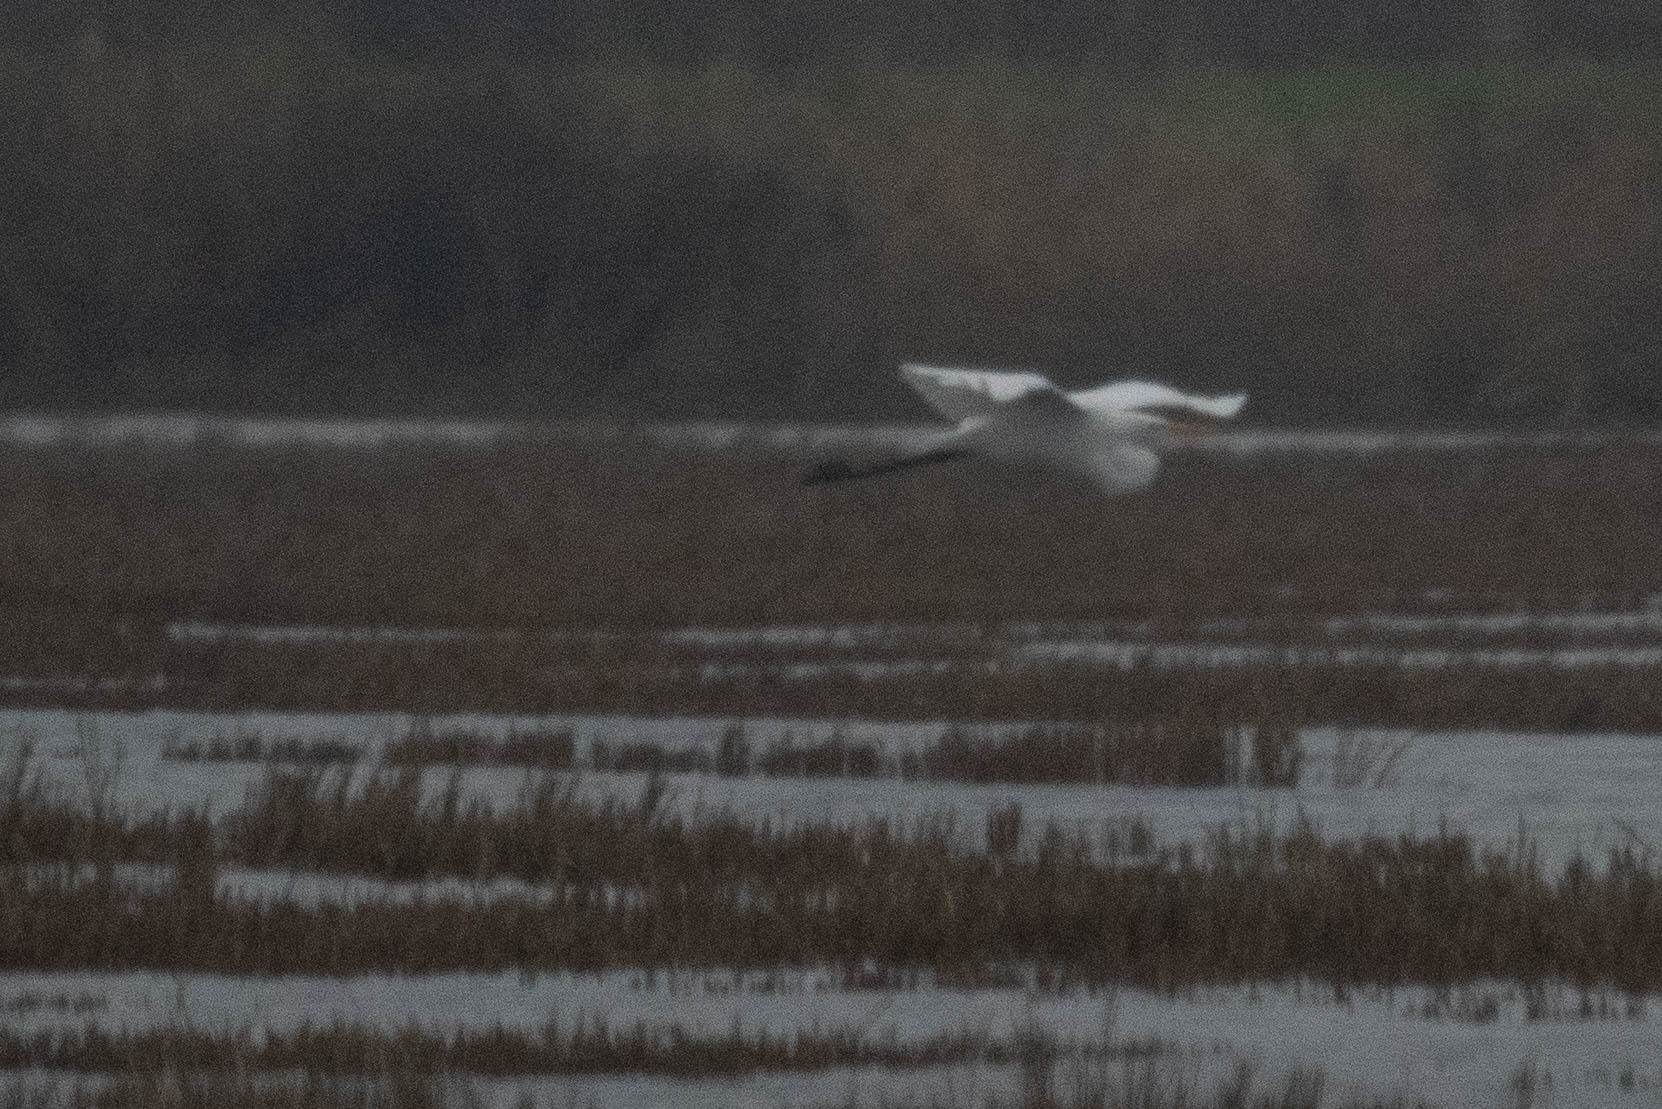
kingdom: Animalia
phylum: Chordata
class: Aves
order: Pelecaniformes
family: Ardeidae
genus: Ardea
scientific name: Ardea alba
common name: Great egret
